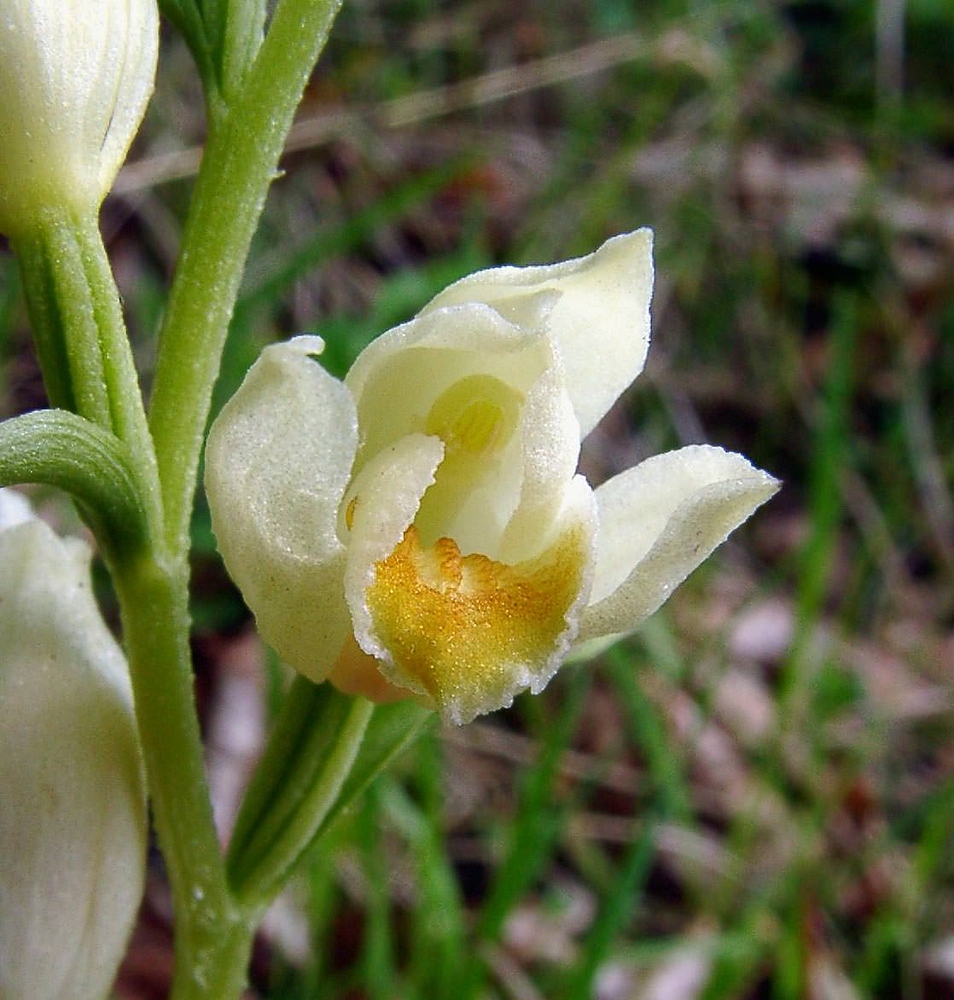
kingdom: Plantae
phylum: Tracheophyta
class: Liliopsida
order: Asparagales
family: Orchidaceae
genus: Cephalanthera
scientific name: Cephalanthera damasonium
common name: White helleborine
